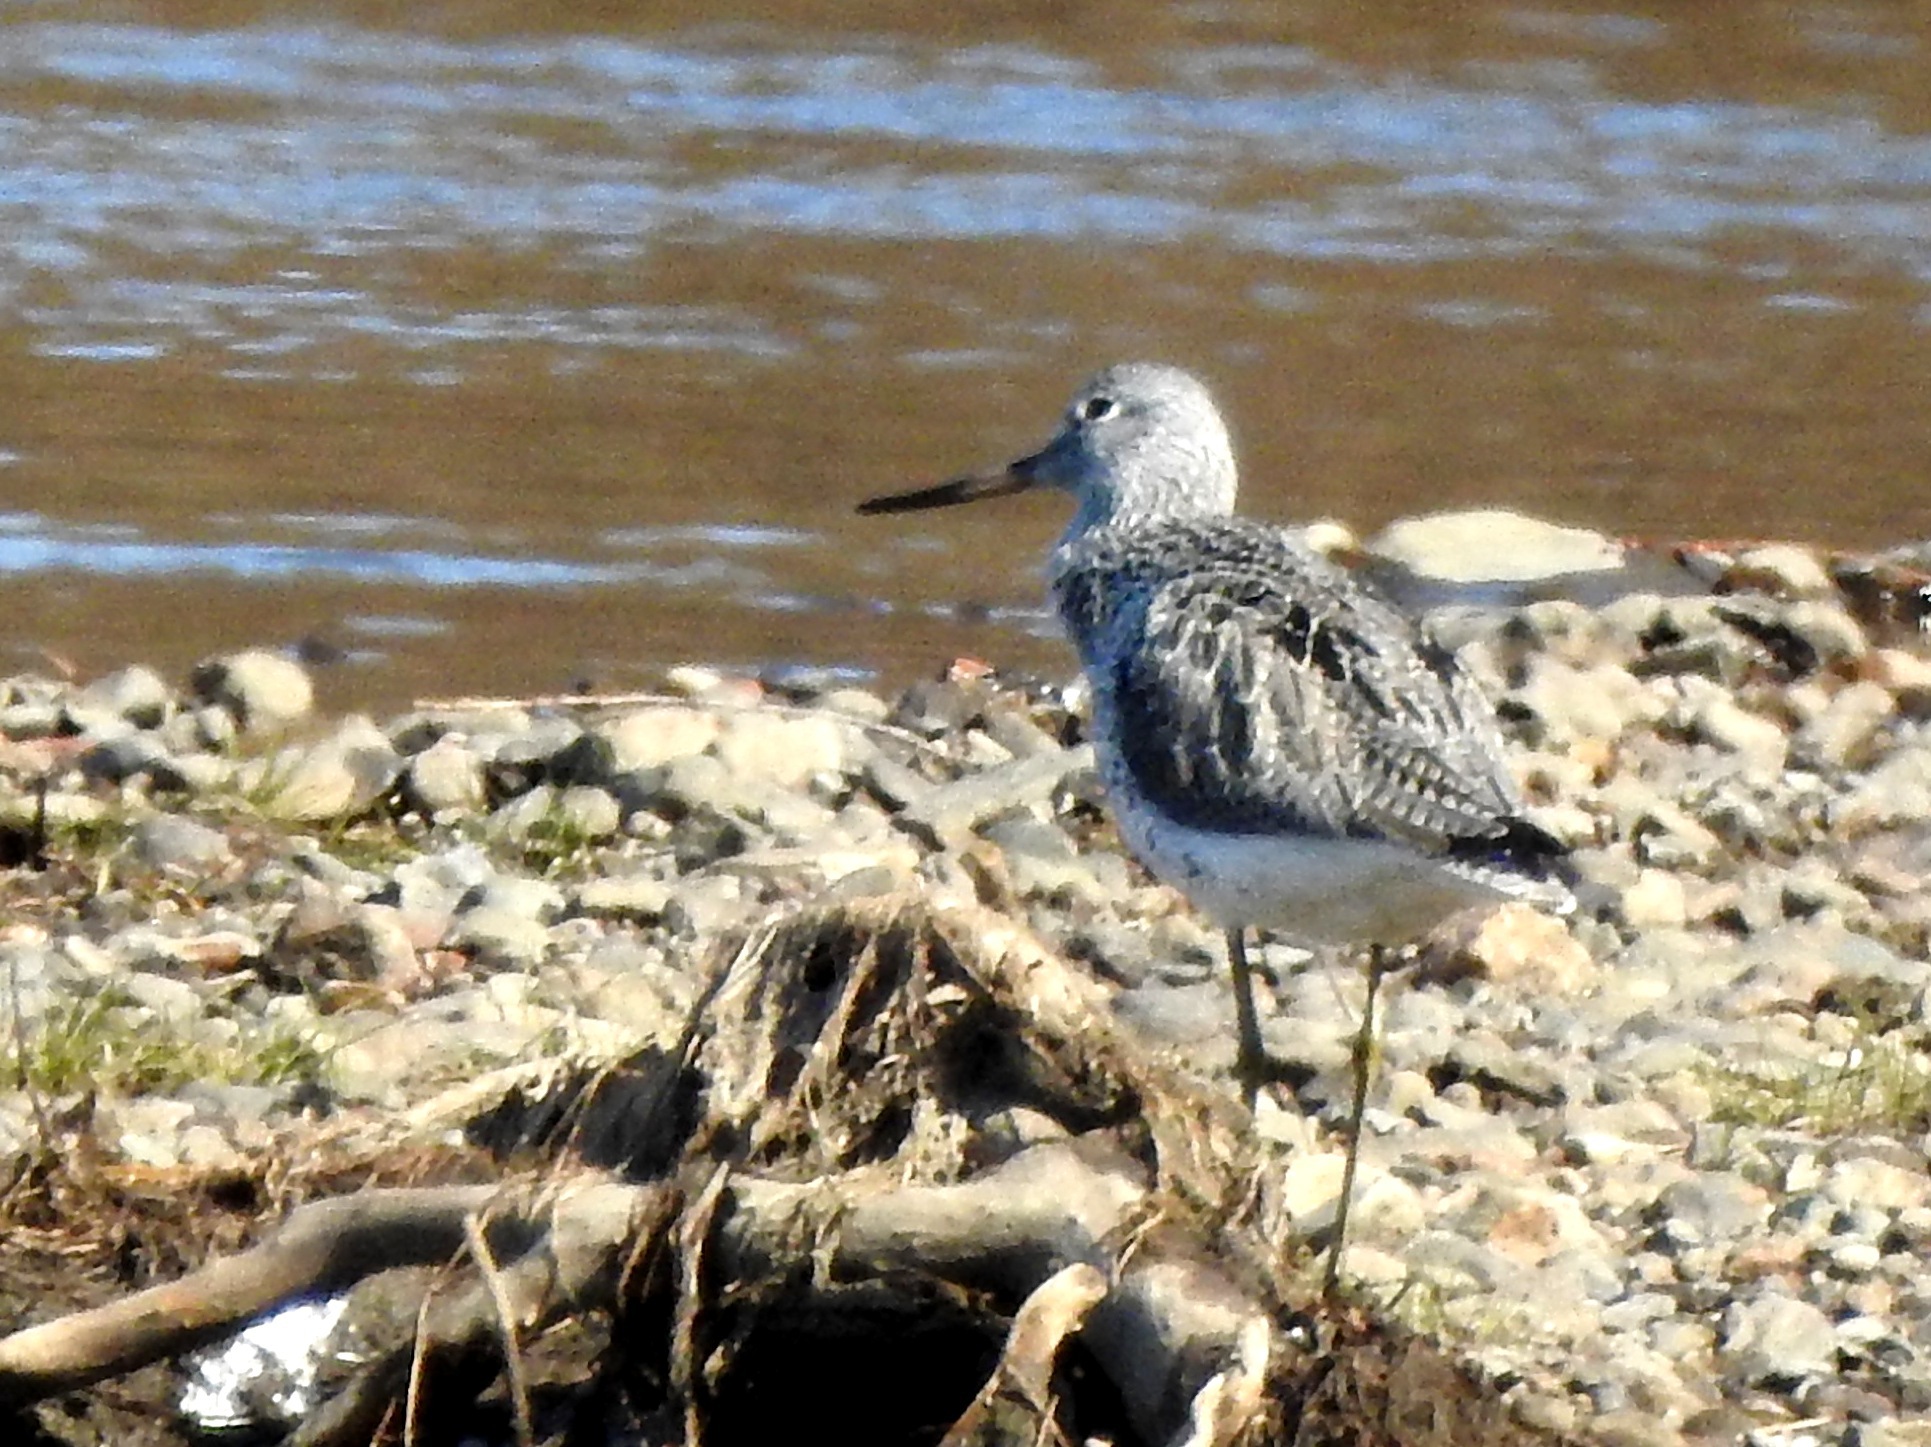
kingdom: Animalia
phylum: Chordata
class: Aves
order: Charadriiformes
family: Scolopacidae
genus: Tringa
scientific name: Tringa nebularia
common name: Common greenshank
